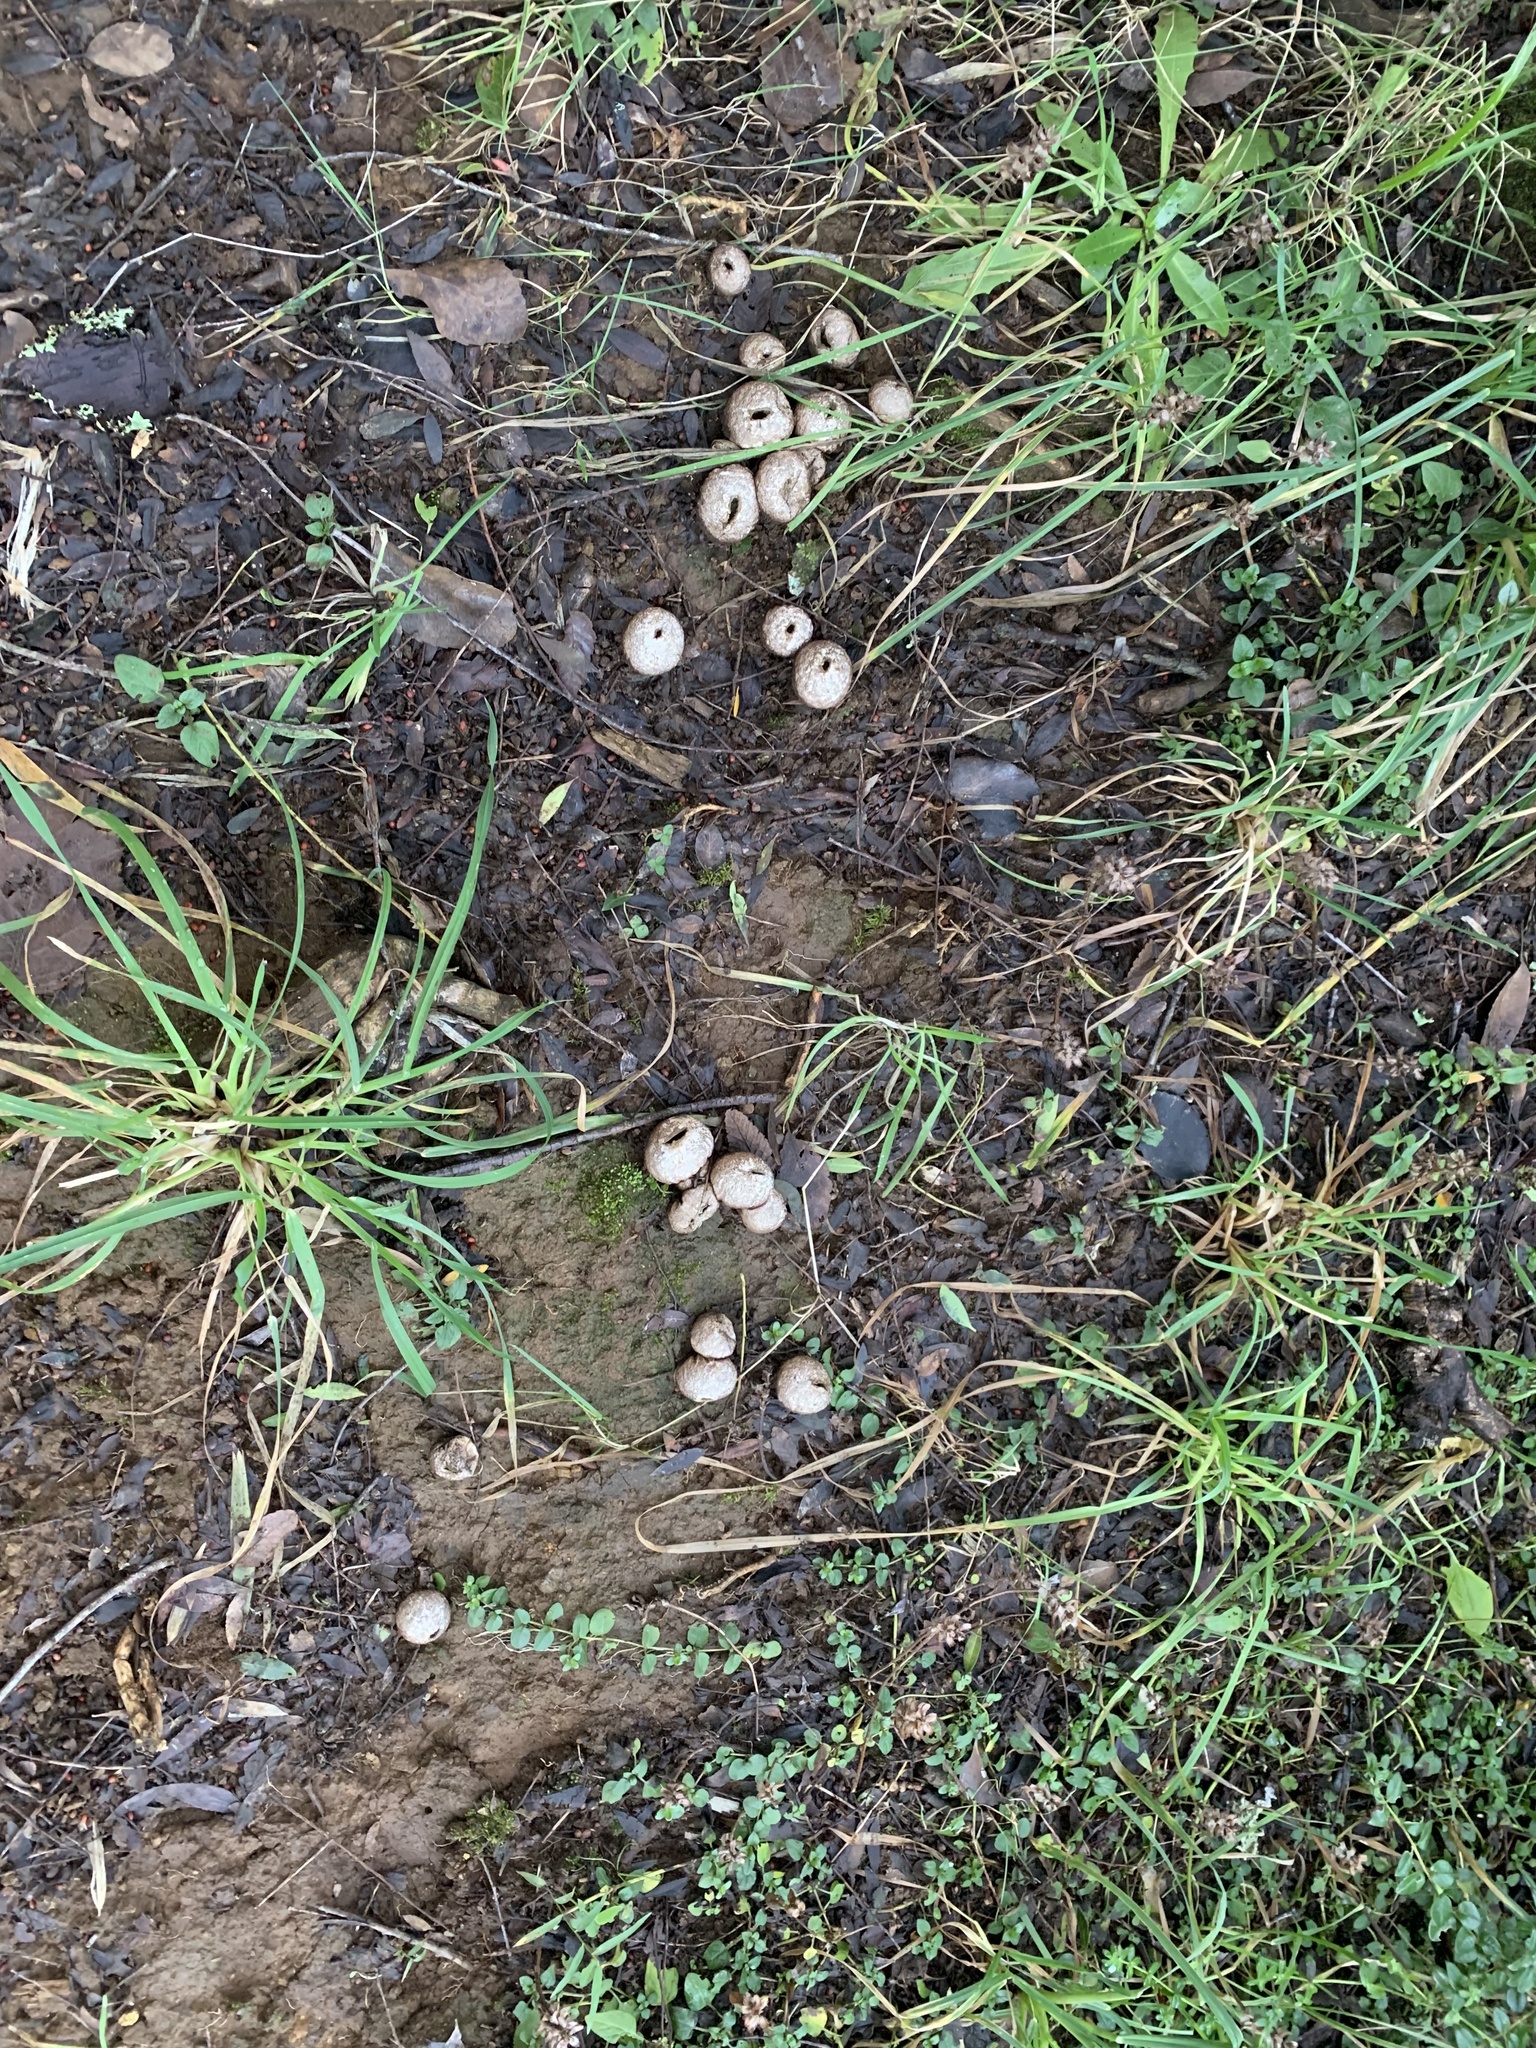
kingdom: Fungi
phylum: Basidiomycota
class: Agaricomycetes
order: Agaricales
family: Lycoperdaceae
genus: Lycoperdon
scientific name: Lycoperdon perlatum
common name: Common puffball
